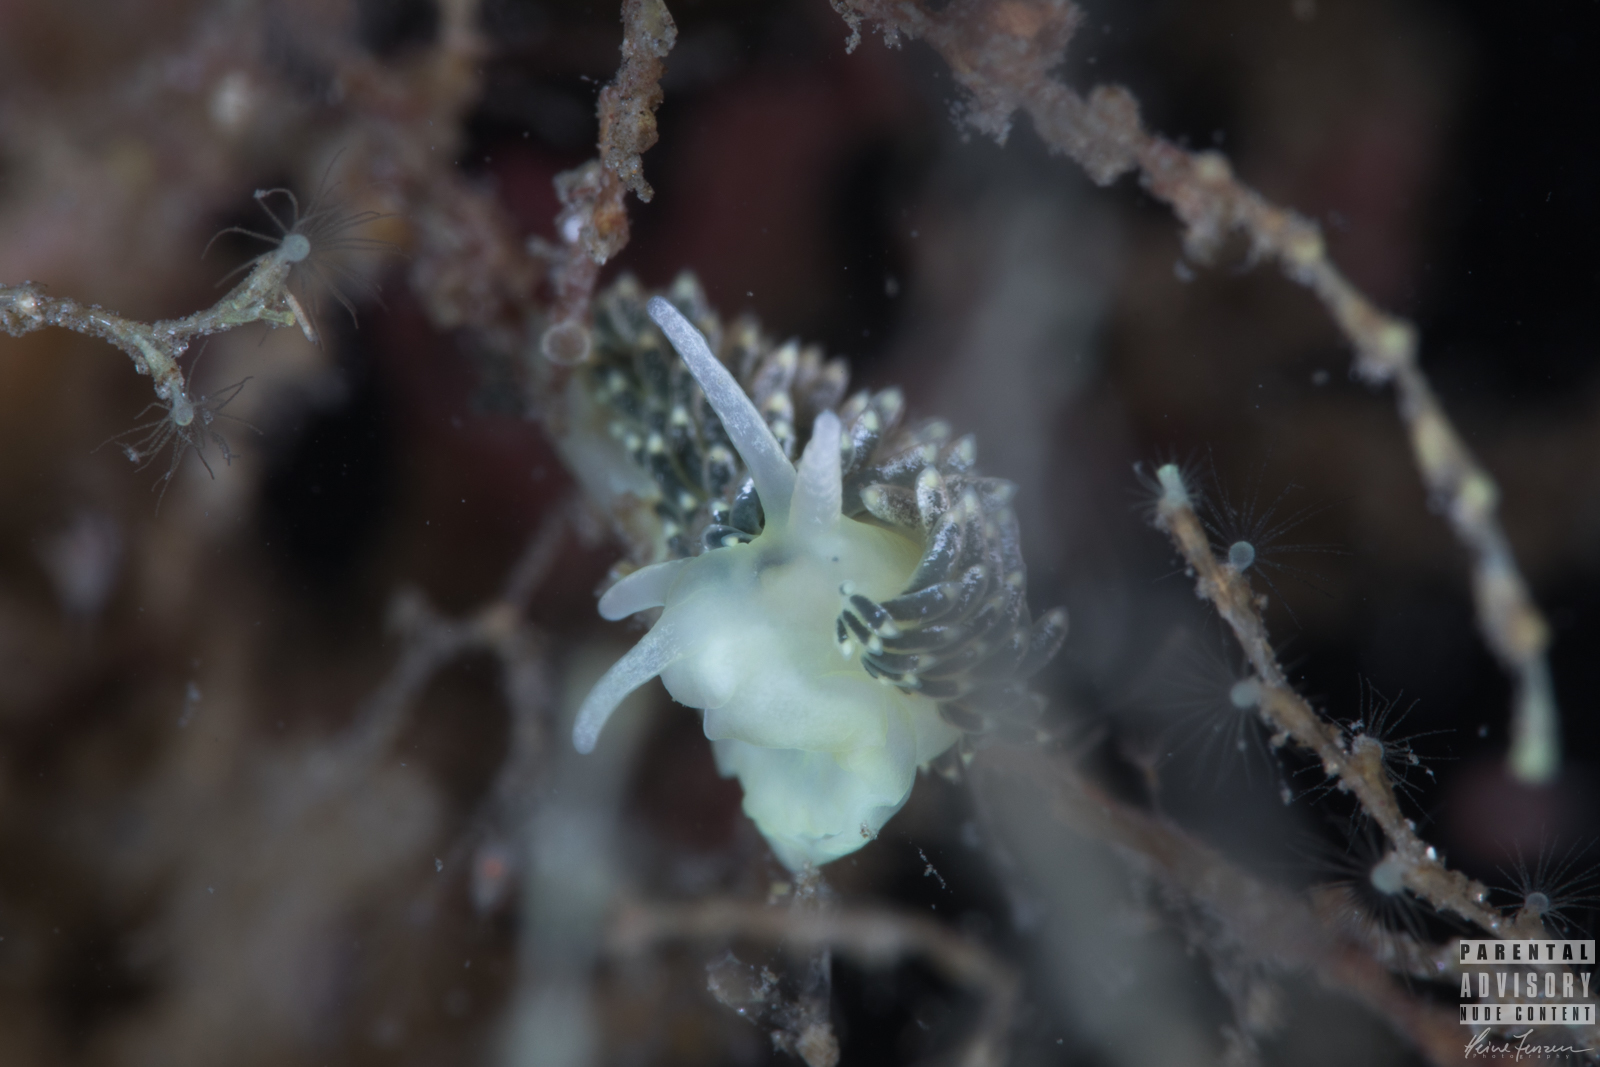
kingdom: Animalia
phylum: Mollusca
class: Gastropoda
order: Nudibranchia
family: Trinchesiidae
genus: Diaphoreolis
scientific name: Diaphoreolis viridis
